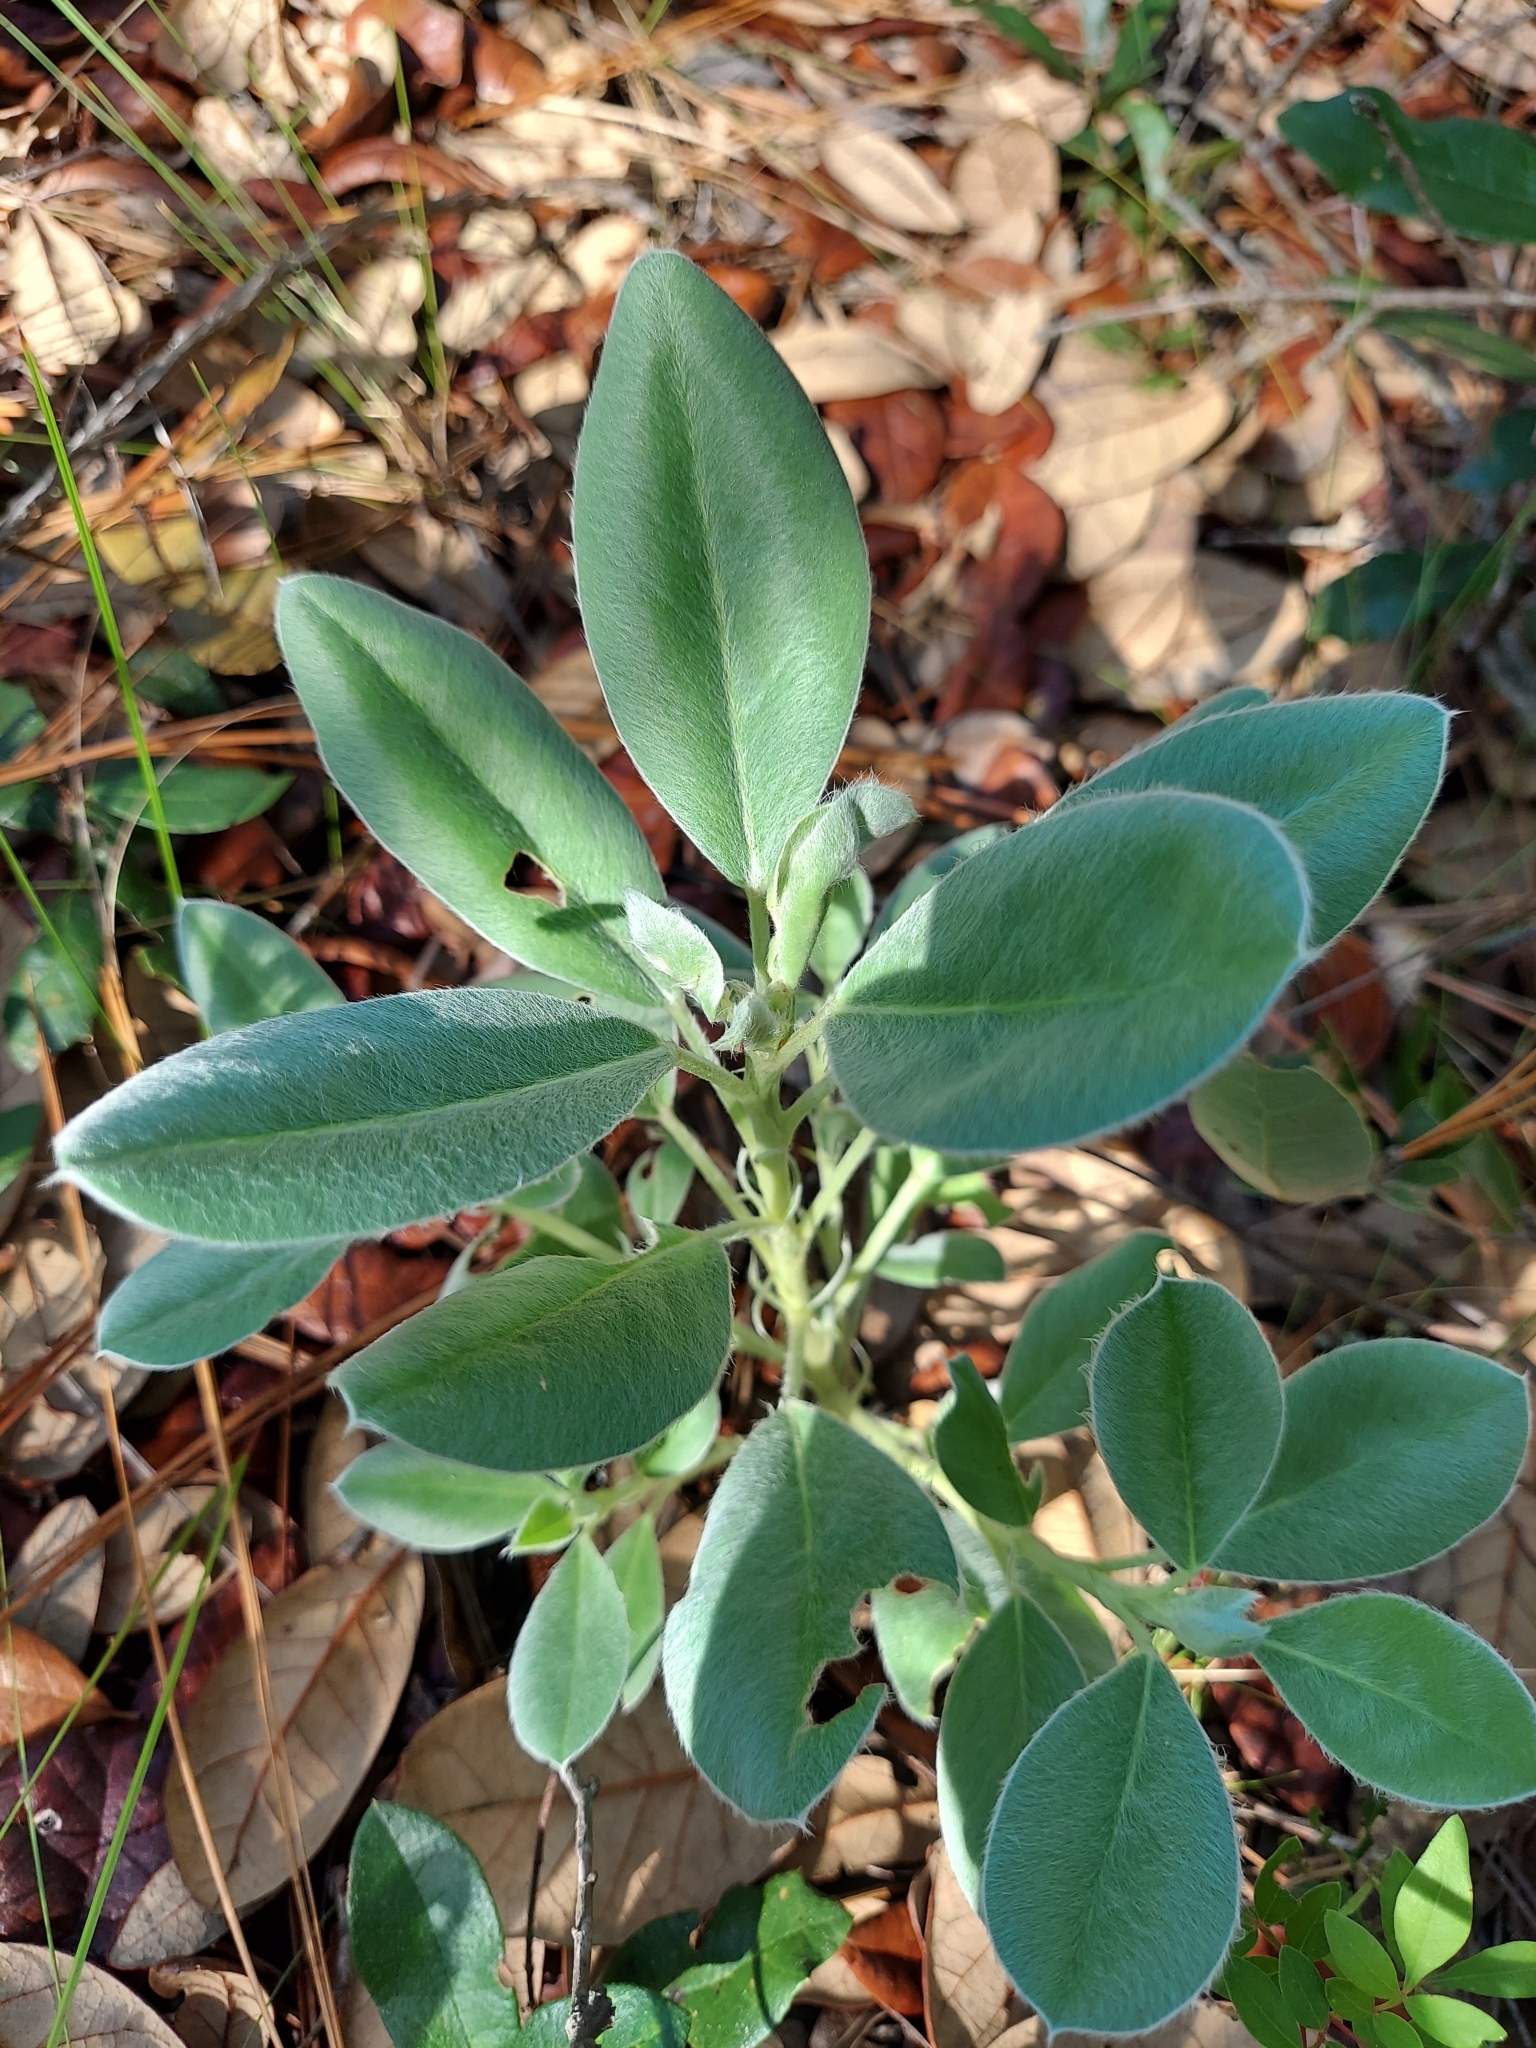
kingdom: Plantae
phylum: Tracheophyta
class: Magnoliopsida
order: Fabales
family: Fabaceae
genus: Lupinus
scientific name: Lupinus
